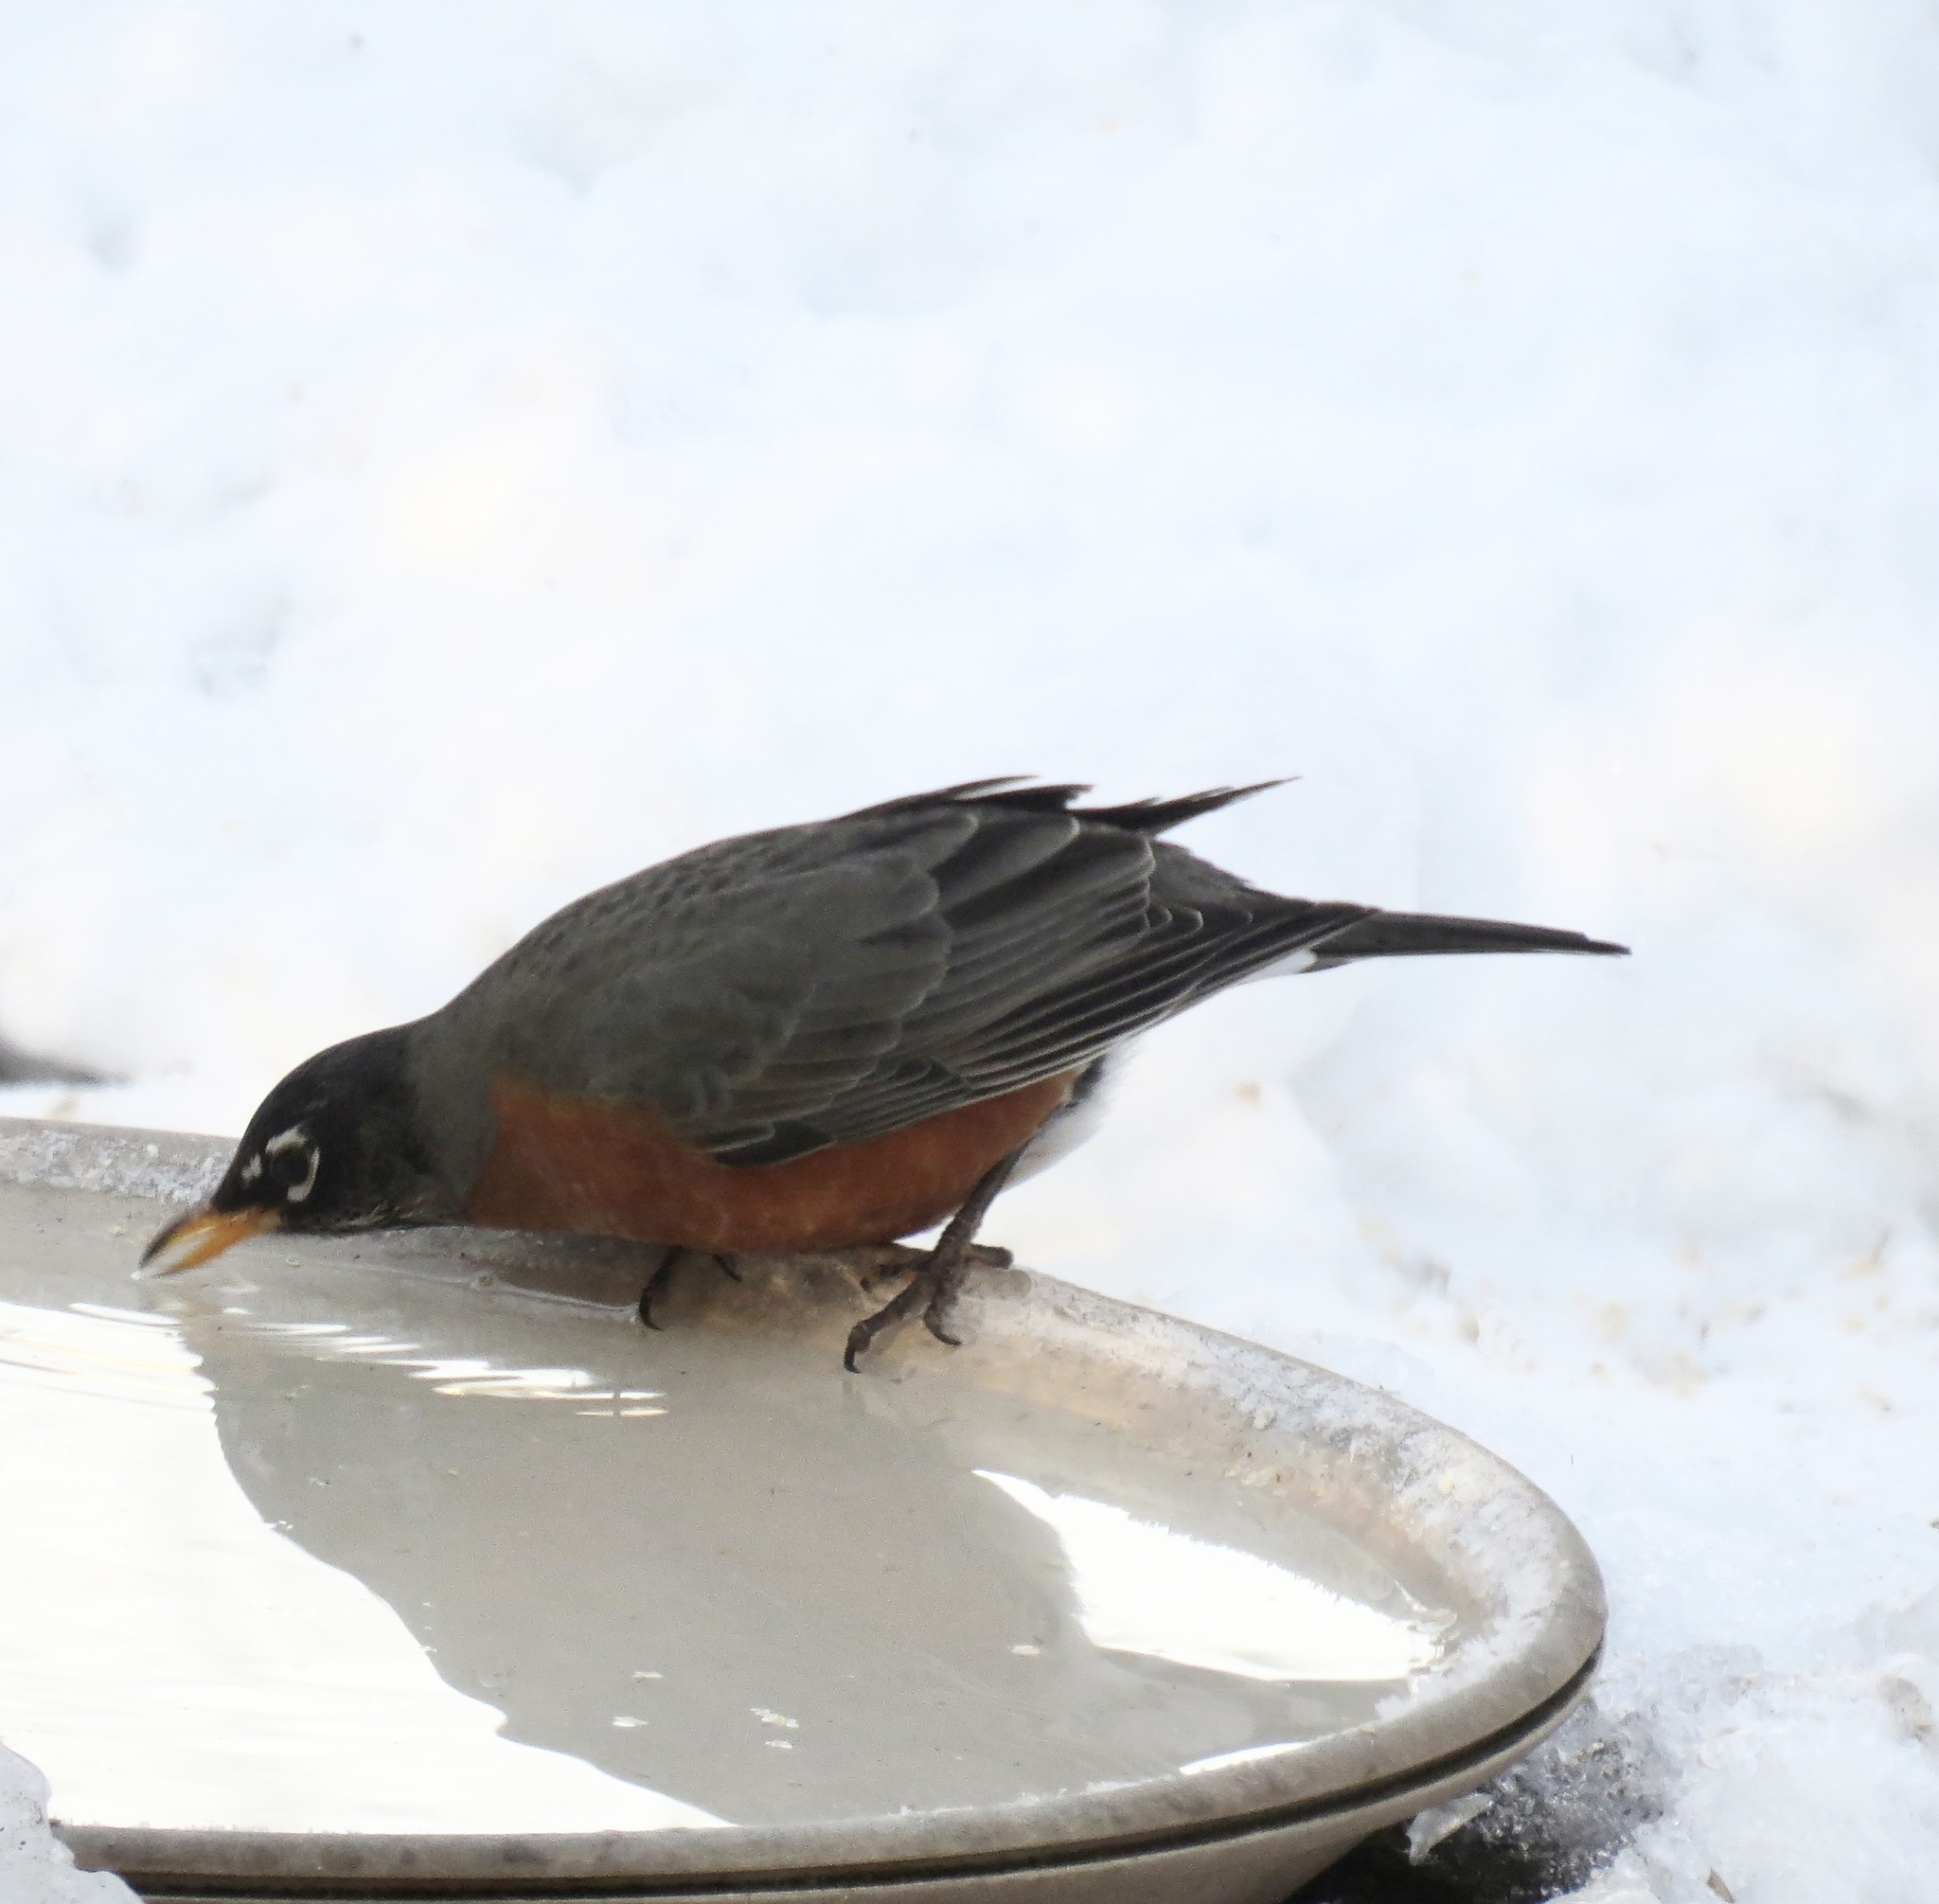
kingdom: Animalia
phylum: Chordata
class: Aves
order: Passeriformes
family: Turdidae
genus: Turdus
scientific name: Turdus migratorius
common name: American robin
